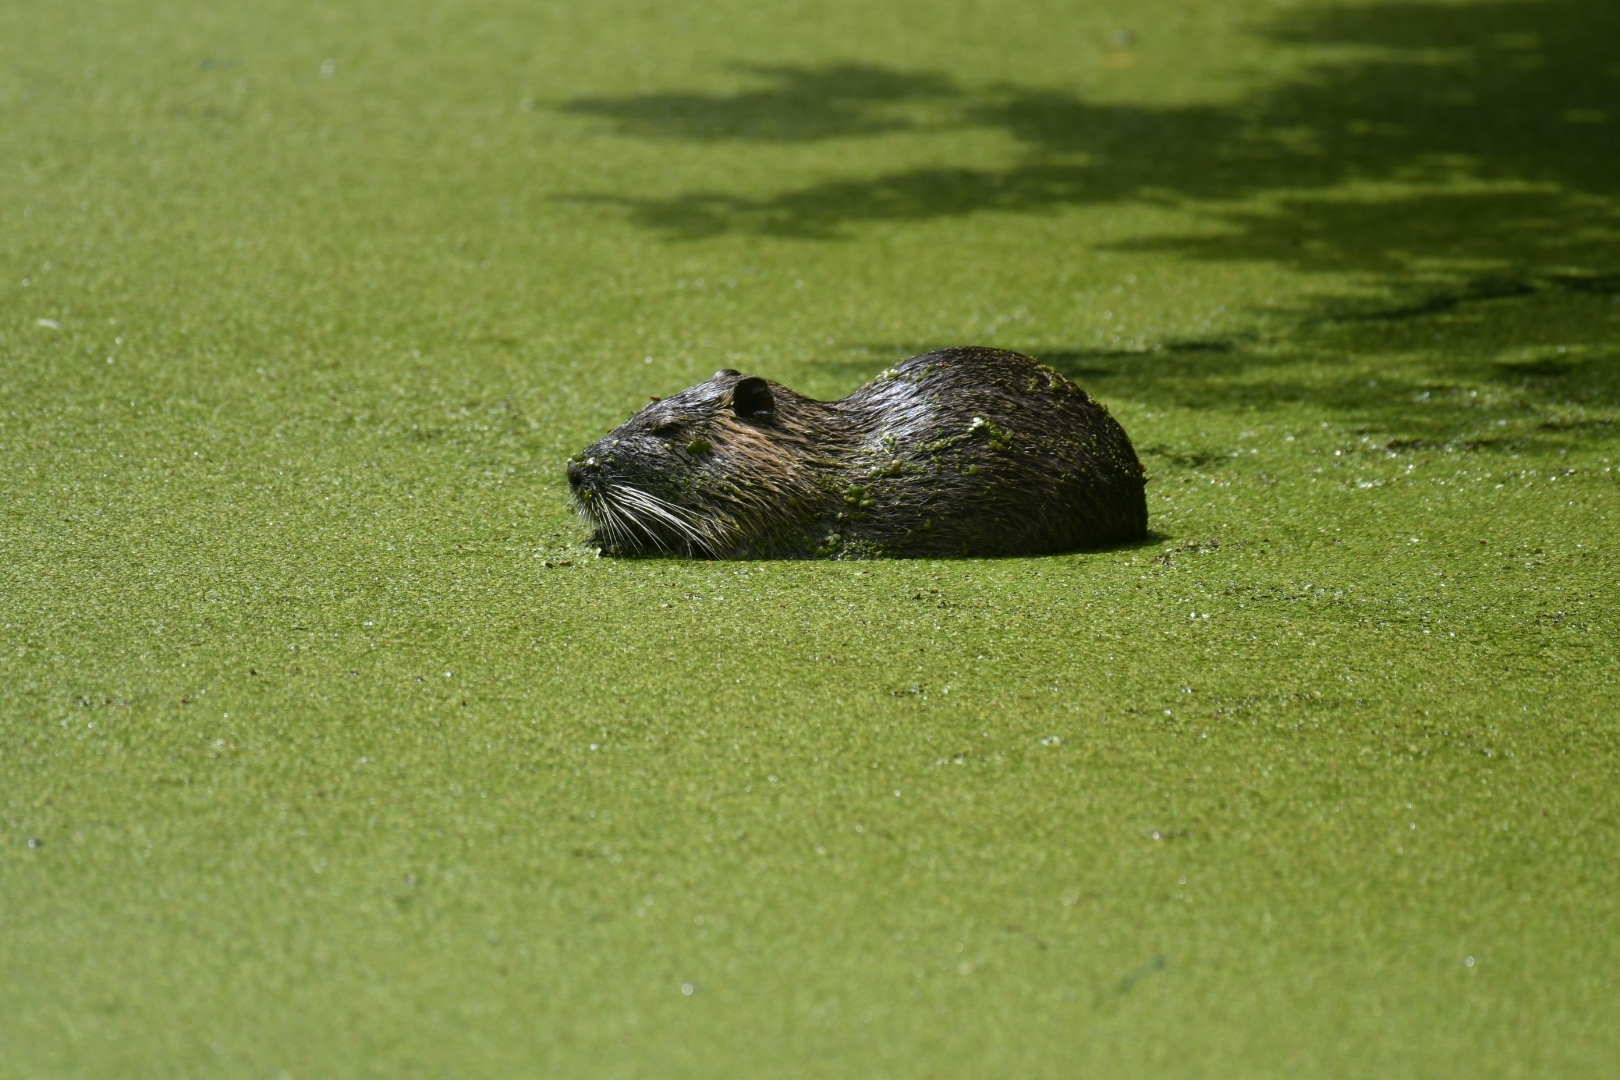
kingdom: Animalia
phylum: Chordata
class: Mammalia
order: Rodentia
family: Myocastoridae
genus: Myocastor
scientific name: Myocastor coypus
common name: Coypu
